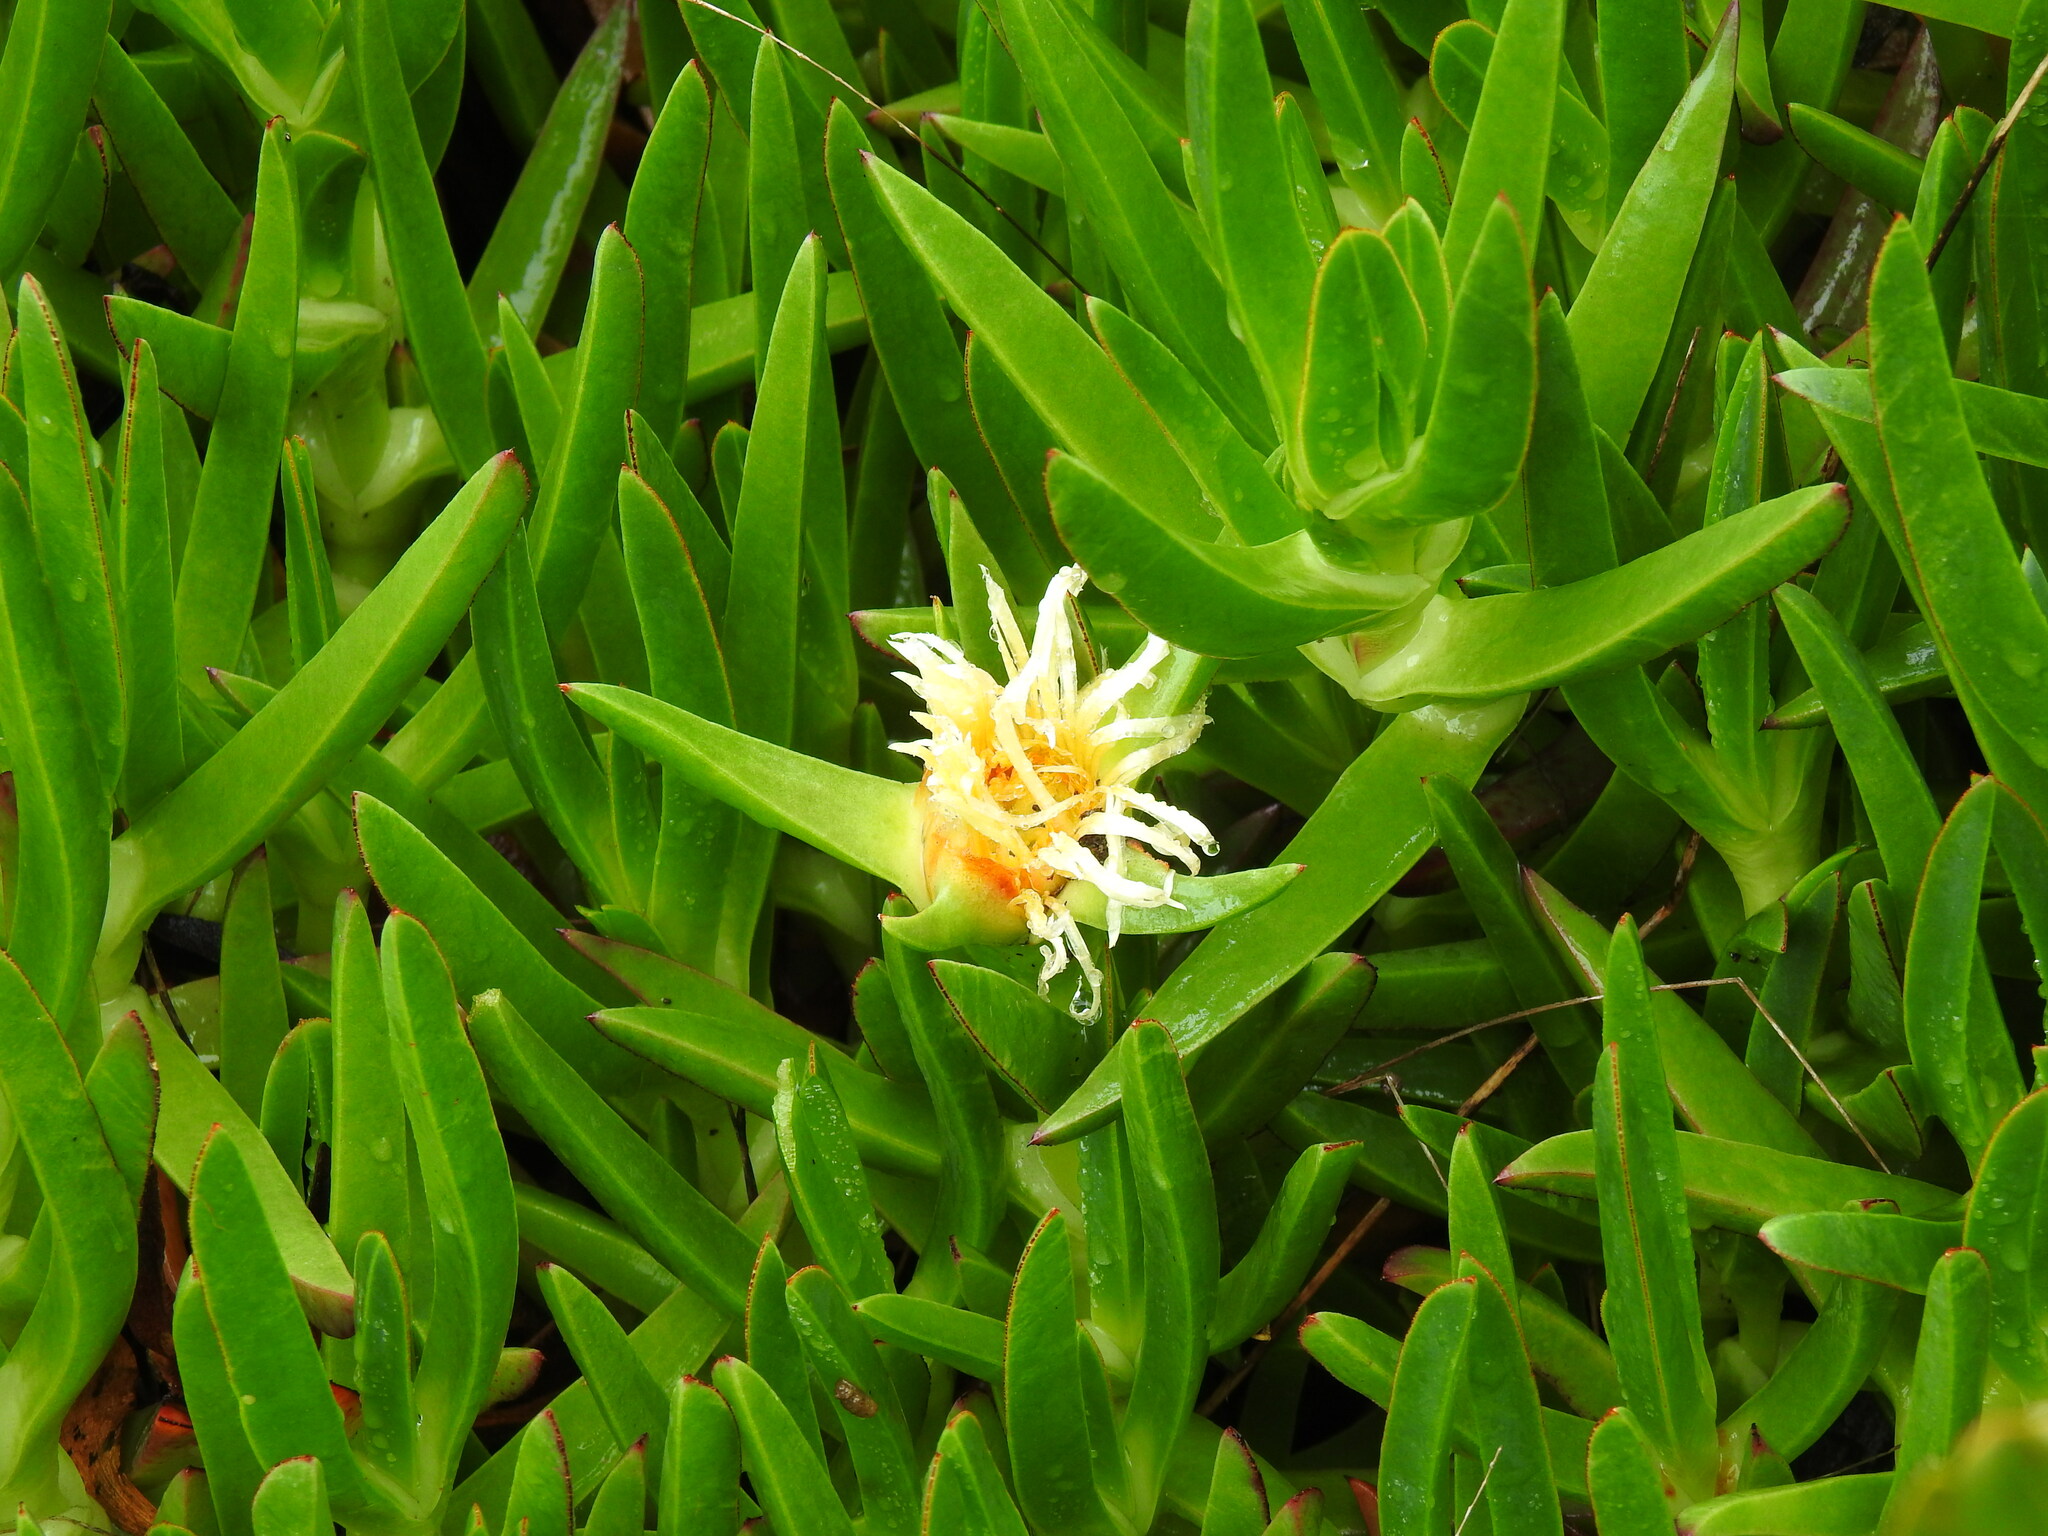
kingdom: Plantae
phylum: Tracheophyta
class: Magnoliopsida
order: Caryophyllales
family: Aizoaceae
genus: Carpobrotus
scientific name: Carpobrotus edulis
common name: Hottentot-fig
